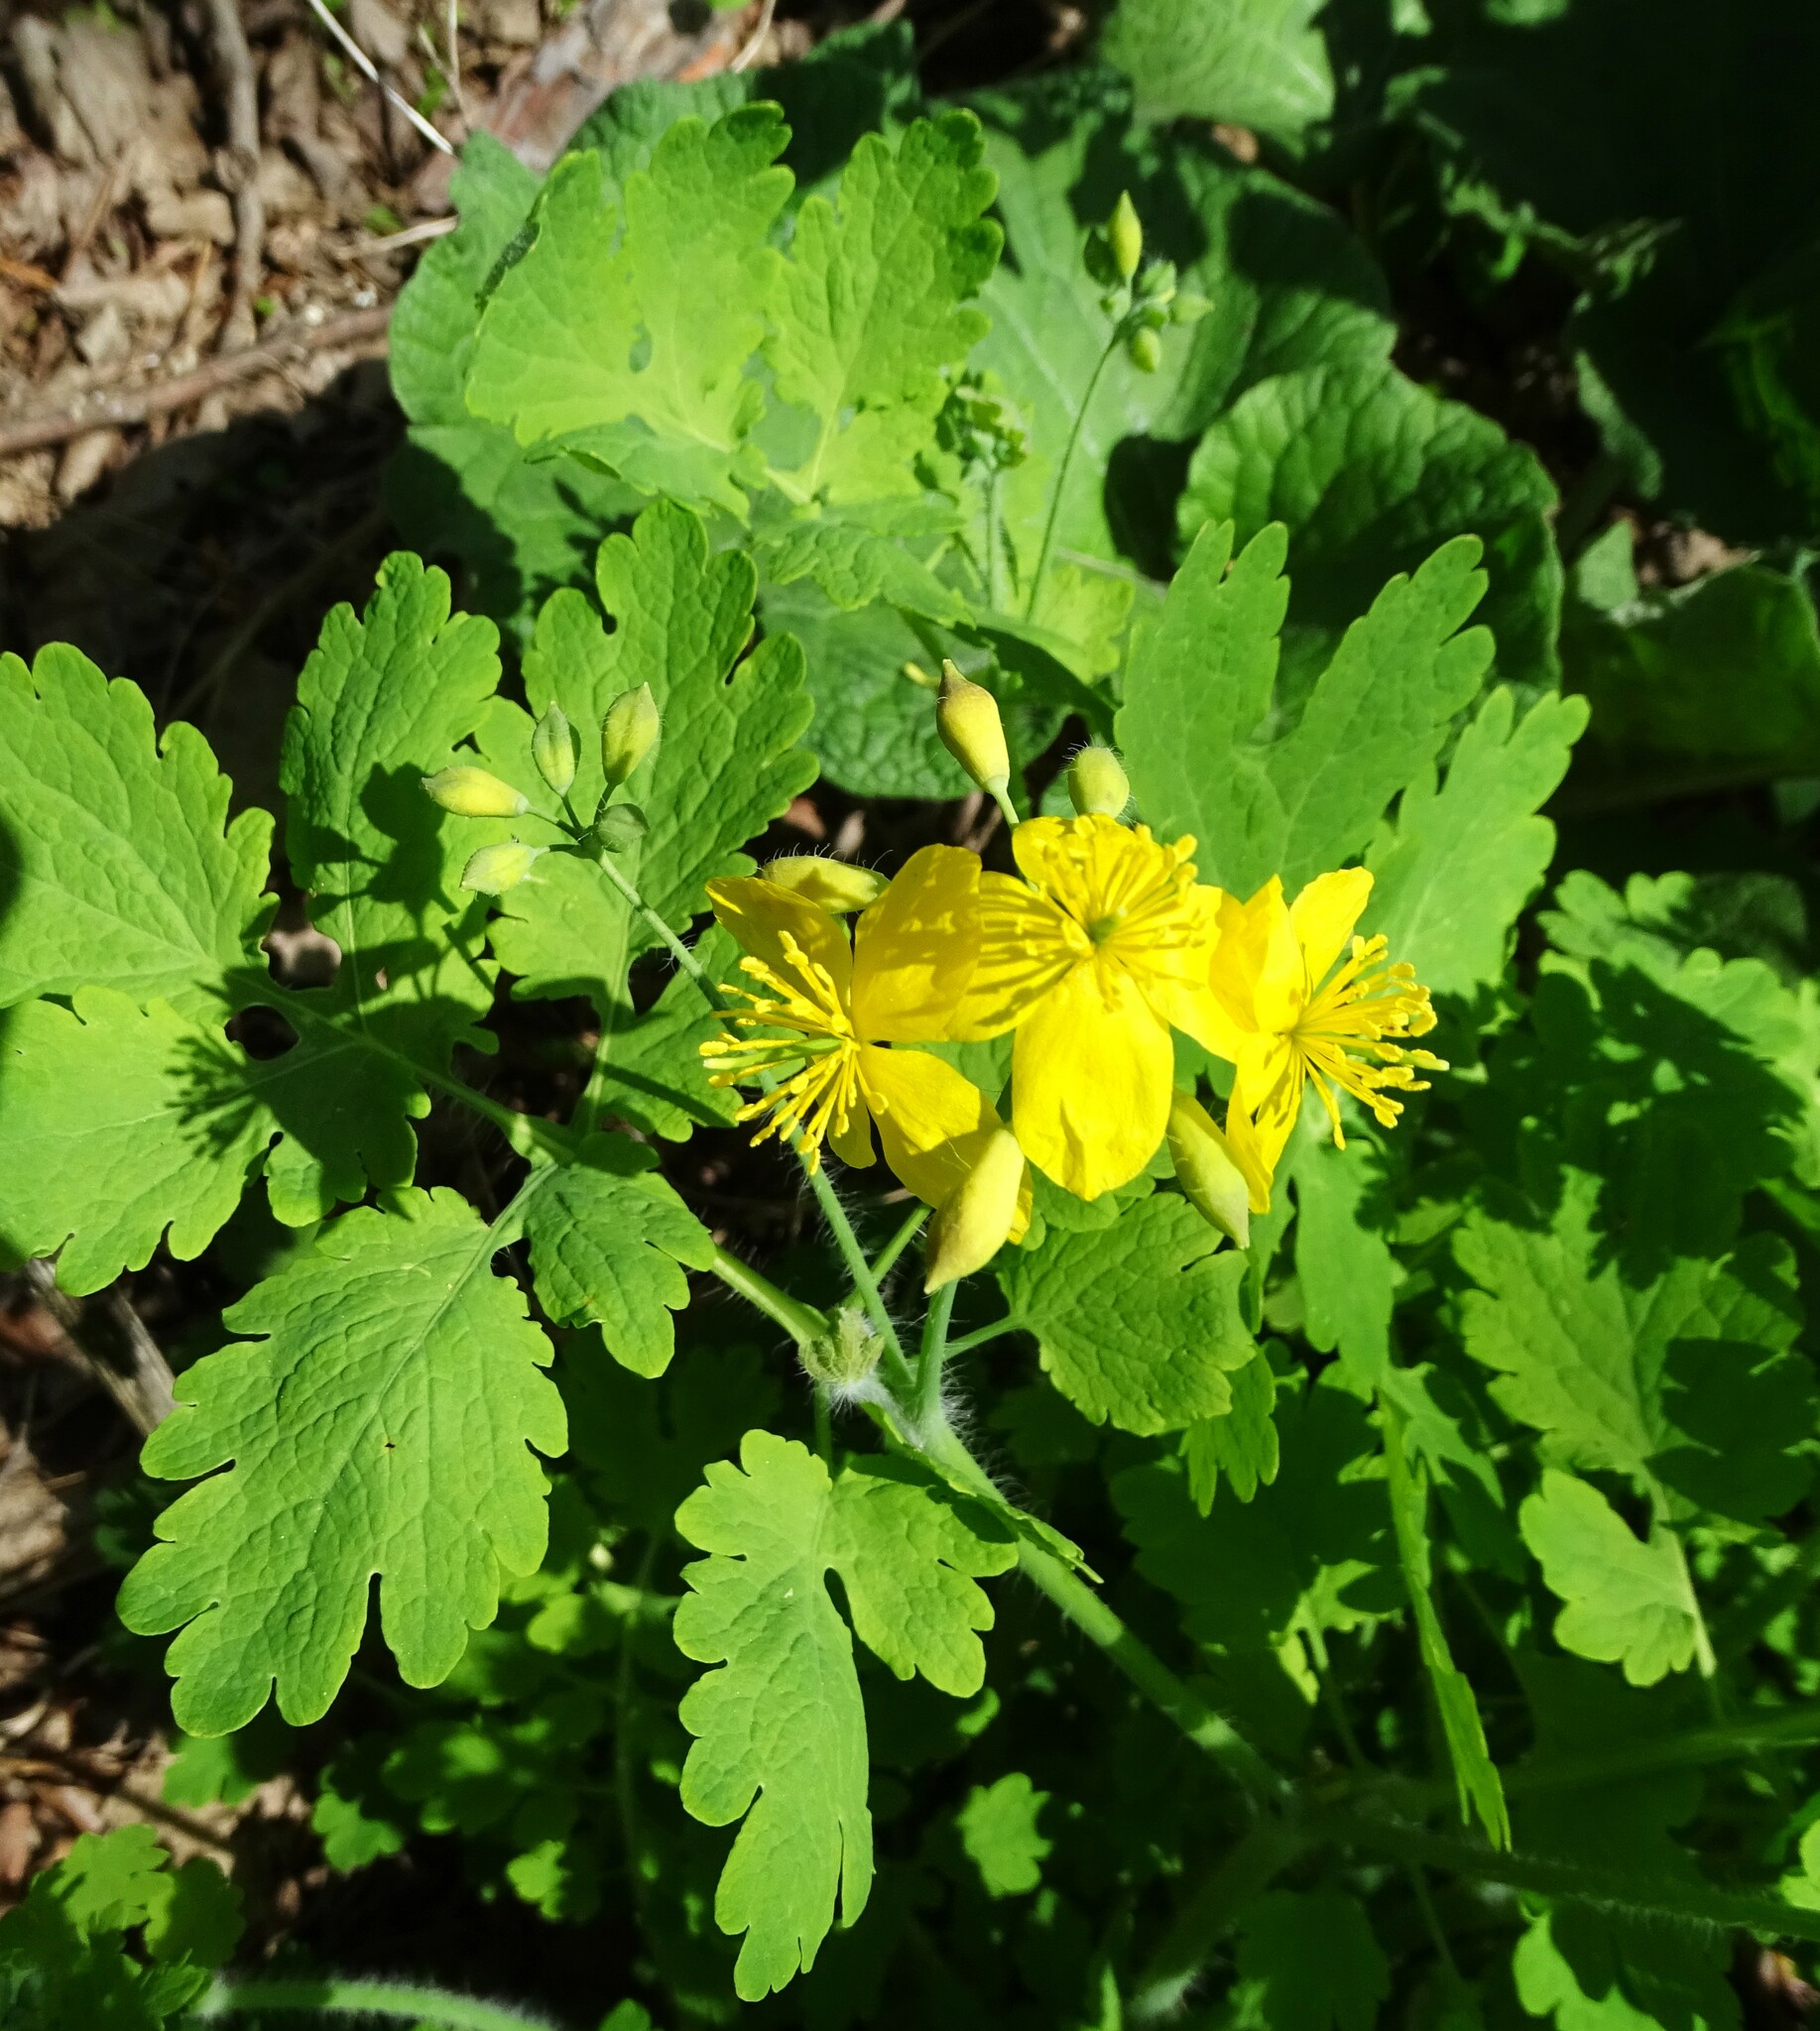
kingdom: Plantae
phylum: Tracheophyta
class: Magnoliopsida
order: Ranunculales
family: Papaveraceae
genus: Chelidonium
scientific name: Chelidonium majus
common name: Greater celandine
